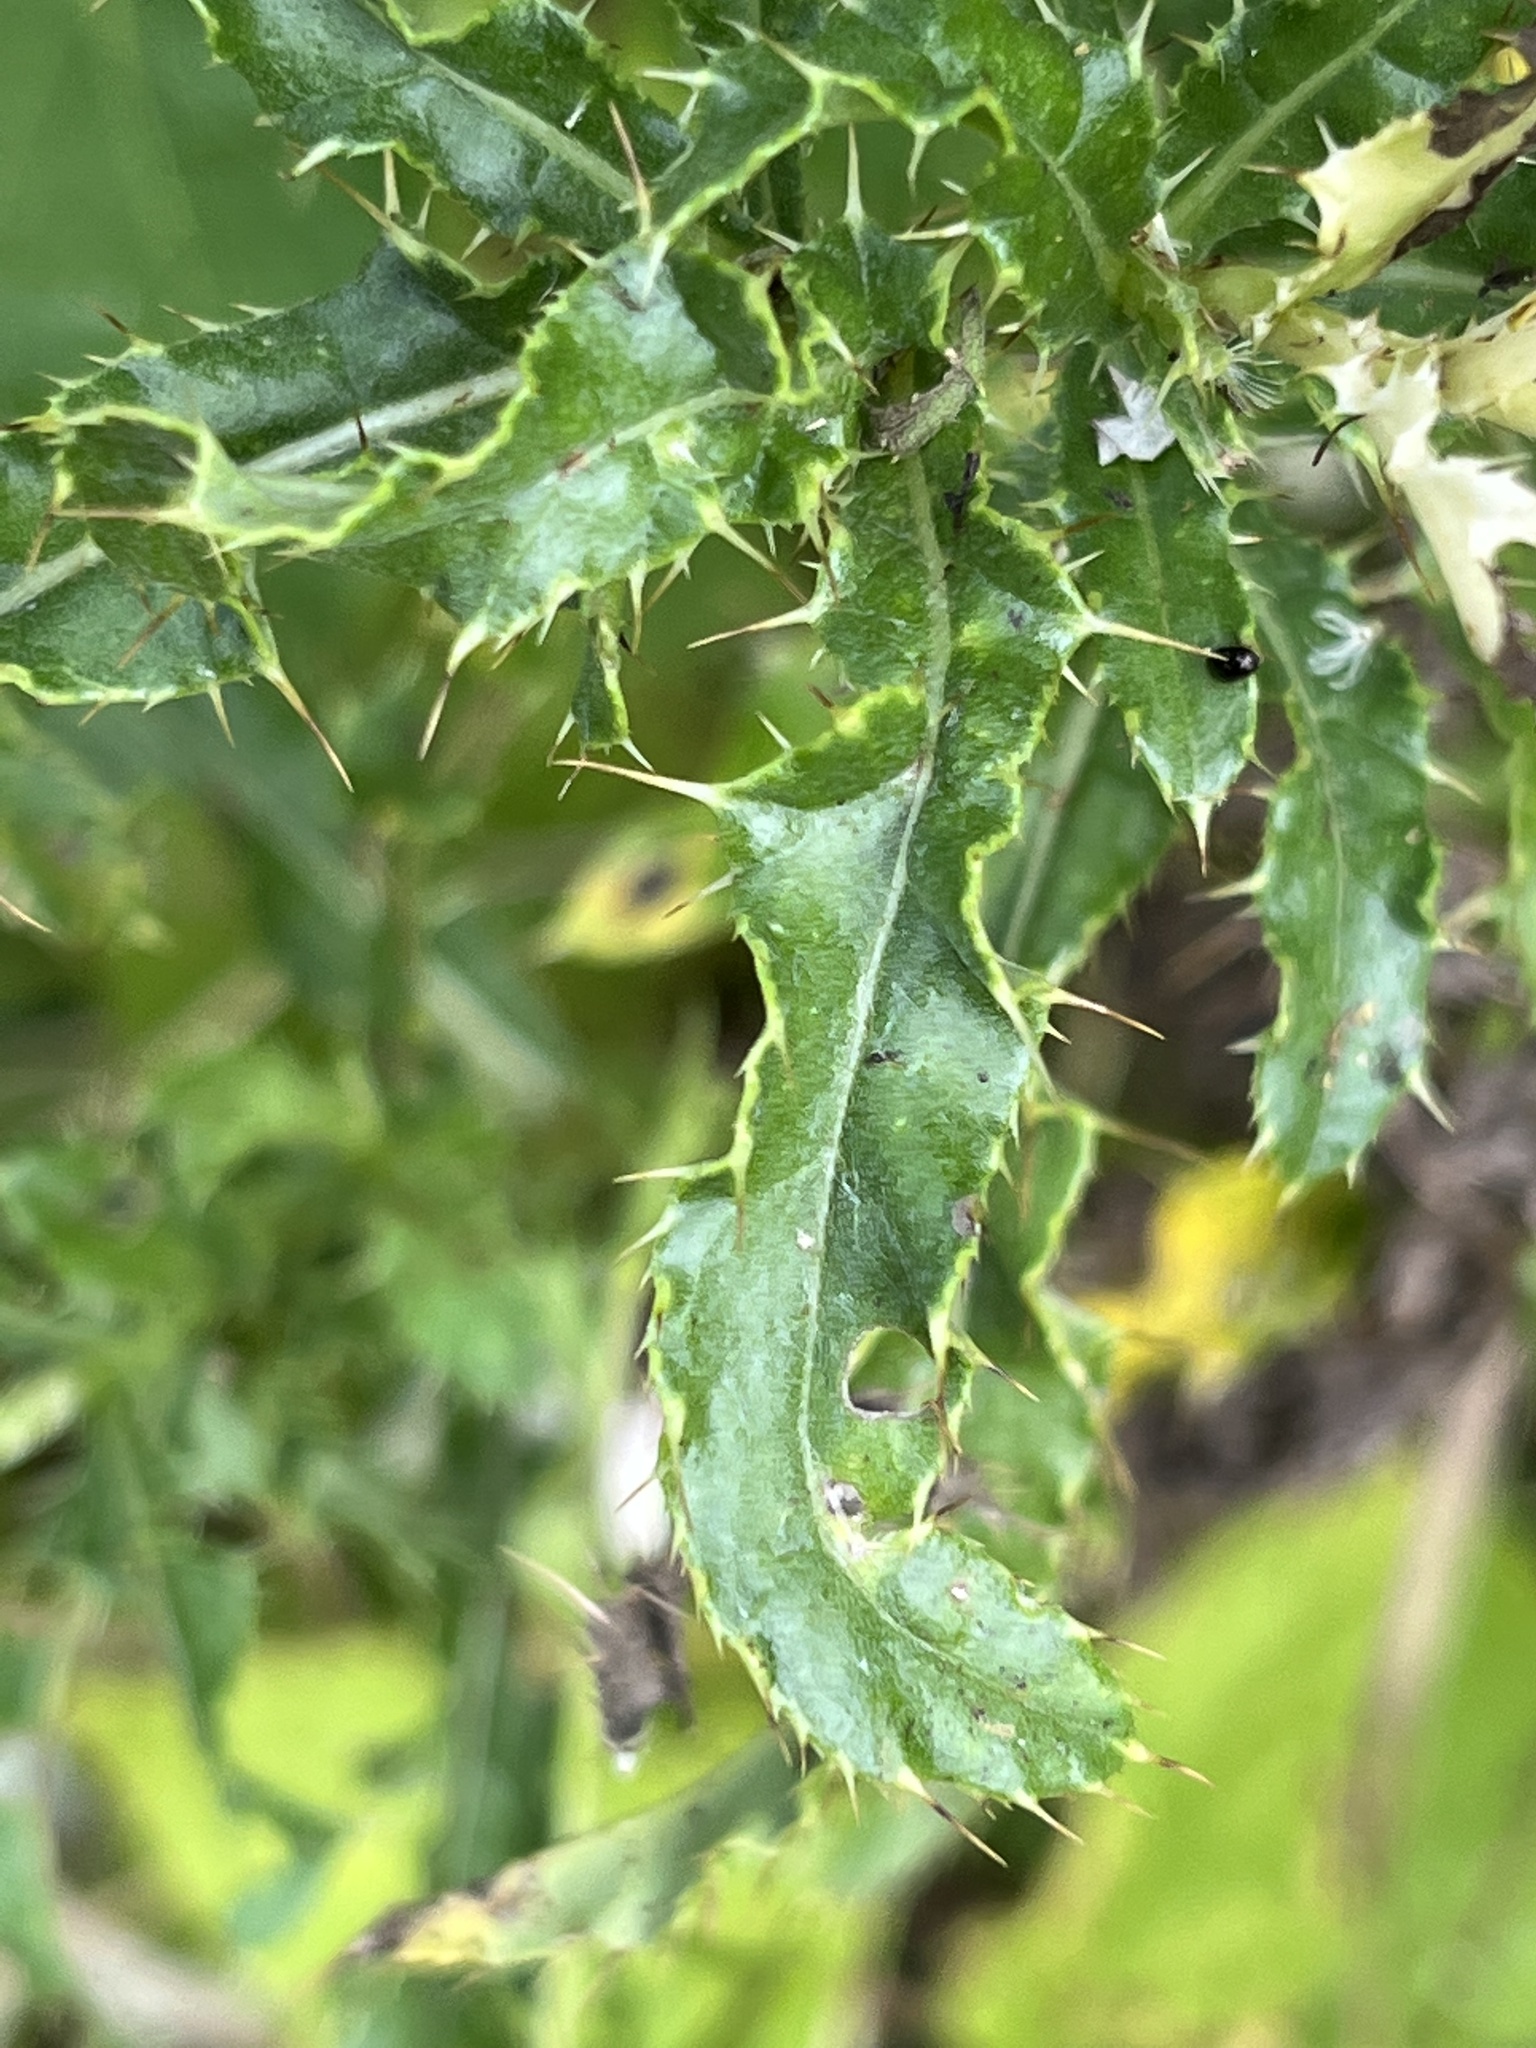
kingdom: Plantae
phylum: Tracheophyta
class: Magnoliopsida
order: Asterales
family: Asteraceae
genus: Cirsium
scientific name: Cirsium arvense
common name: Creeping thistle
